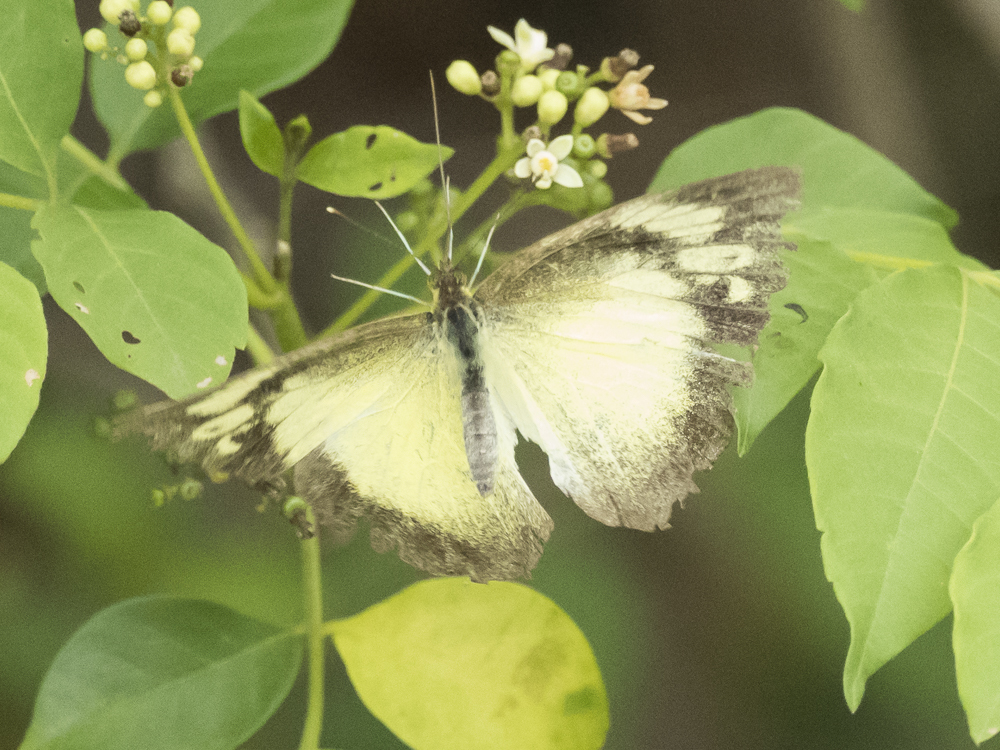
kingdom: Animalia
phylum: Arthropoda
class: Insecta
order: Lepidoptera
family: Pieridae
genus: Appias
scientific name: Appias lyncida
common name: Chocolate albatross
